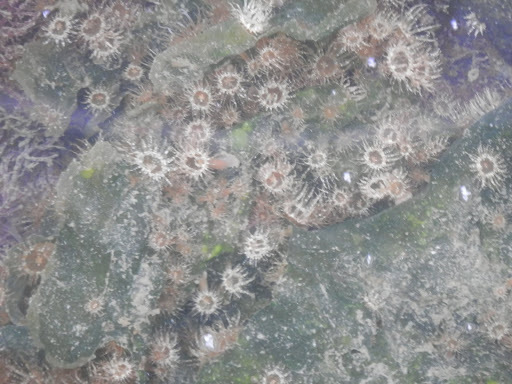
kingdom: Animalia
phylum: Cnidaria
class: Anthozoa
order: Actiniaria
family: Aiptasiidae
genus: Exaiptasia
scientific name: Exaiptasia diaphana
